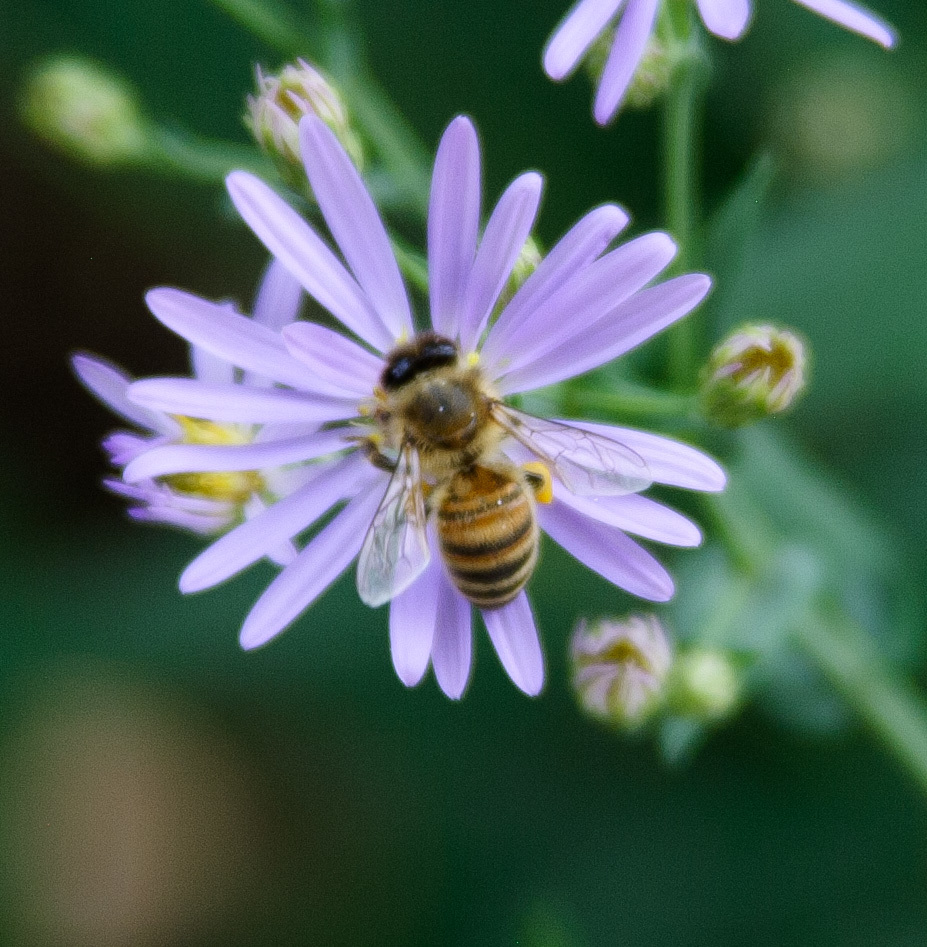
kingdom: Animalia
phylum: Arthropoda
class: Insecta
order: Hymenoptera
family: Apidae
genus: Apis
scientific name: Apis mellifera
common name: Honey bee
